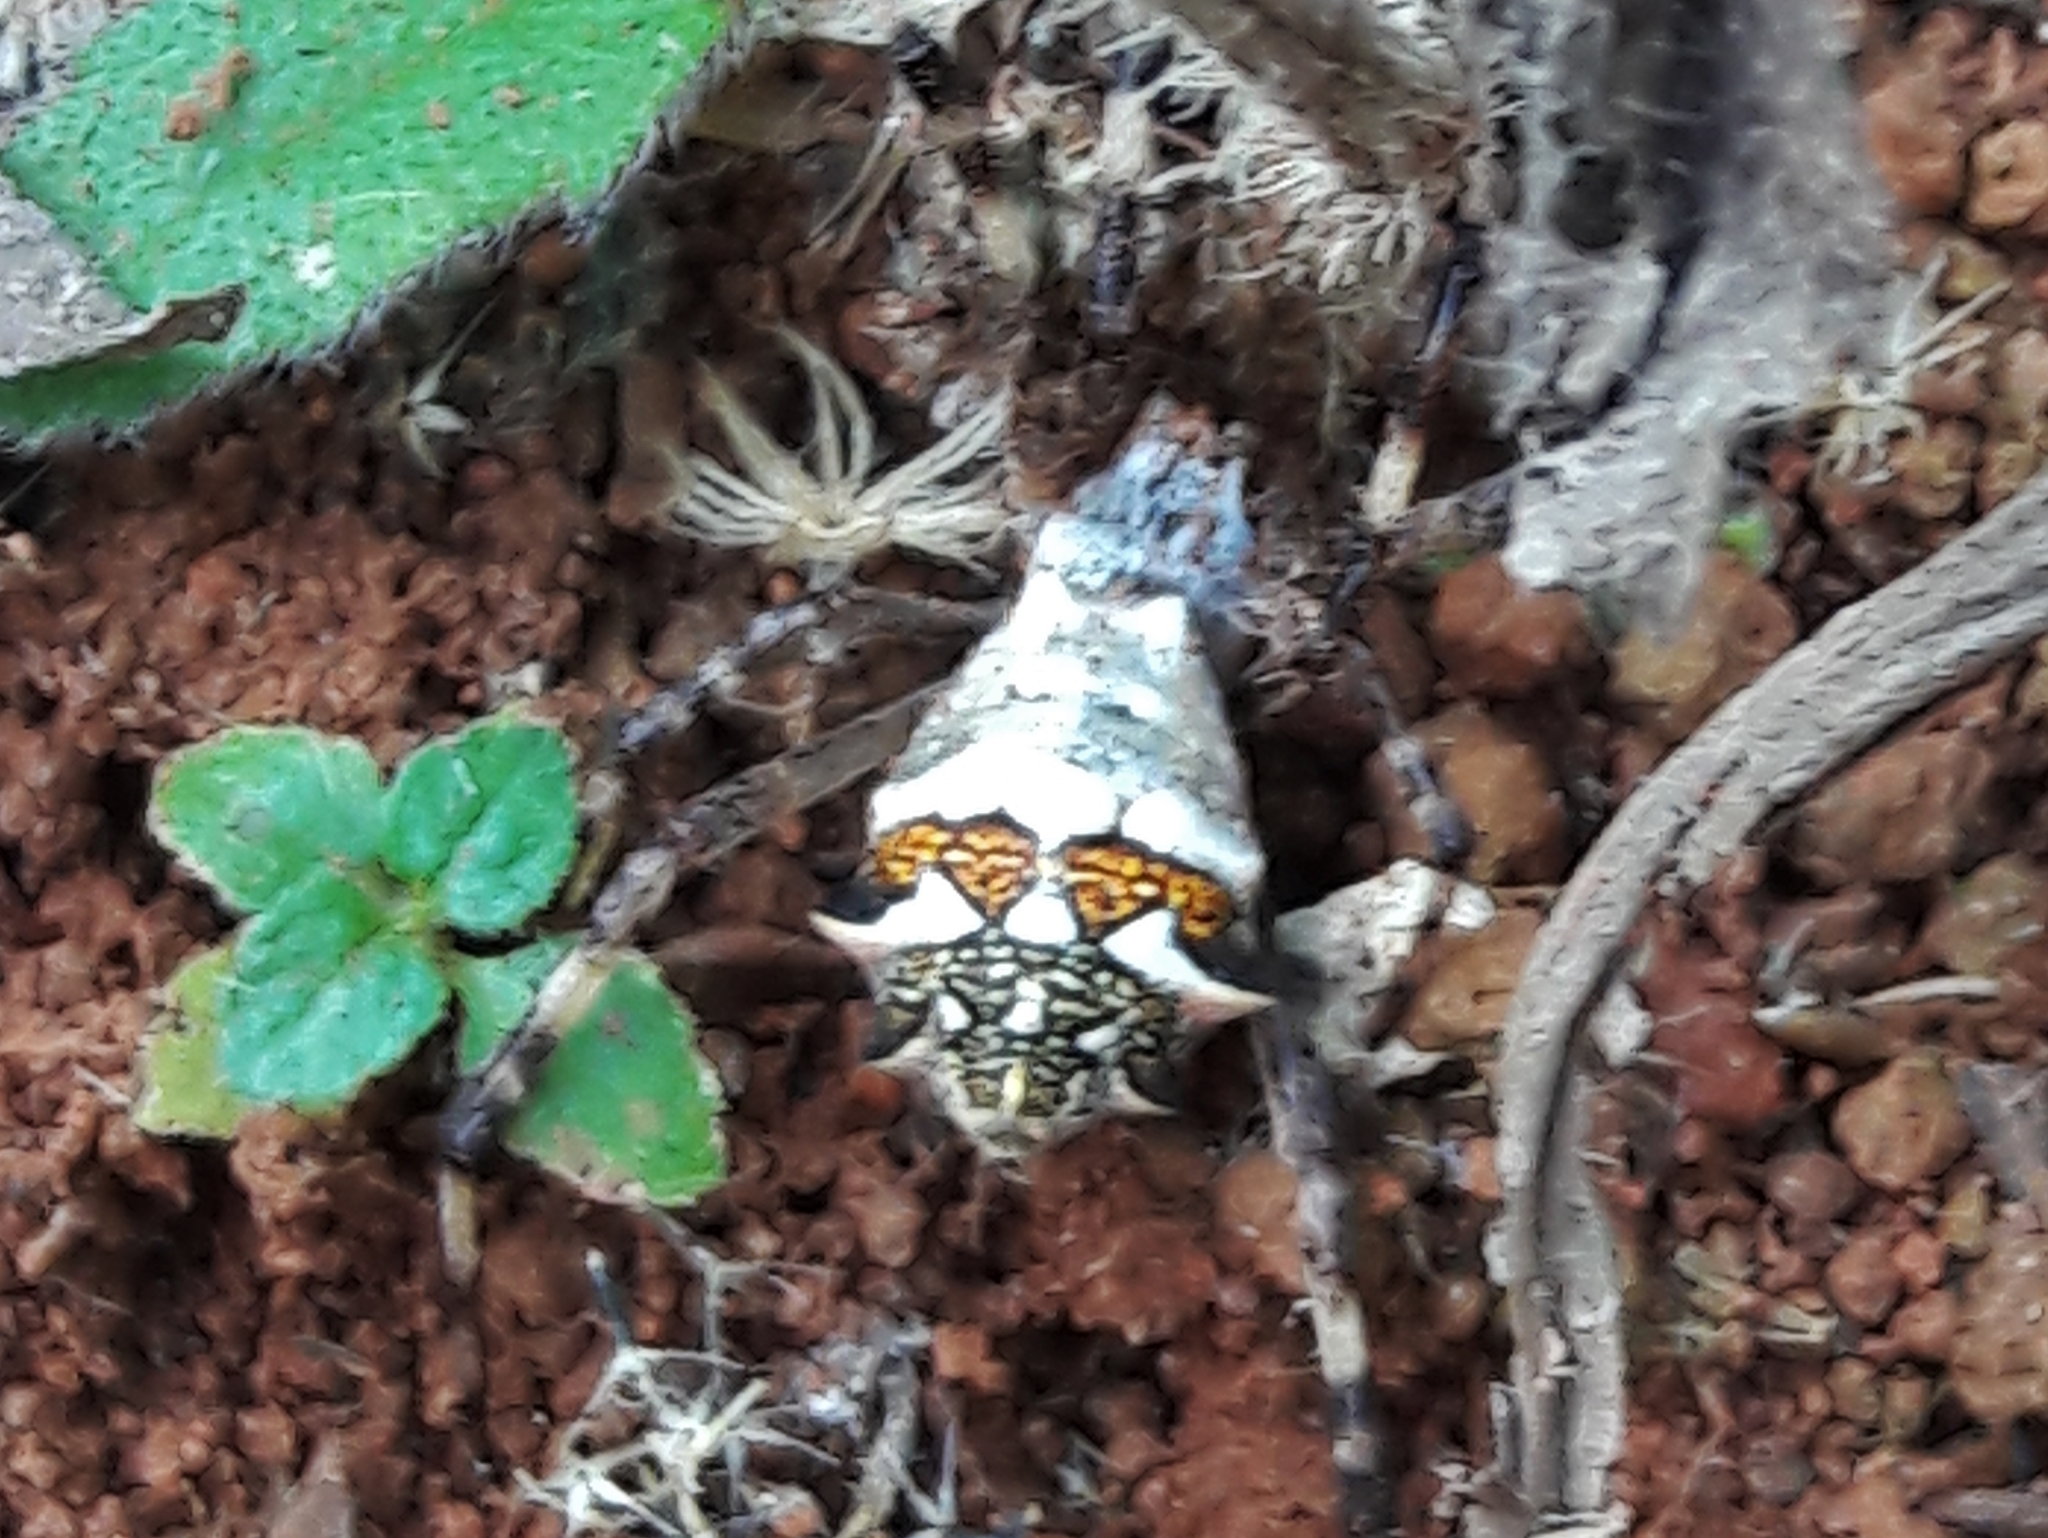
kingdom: Animalia
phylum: Arthropoda
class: Arachnida
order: Araneae
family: Araneidae
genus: Argiope
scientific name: Argiope argentata
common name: Orb weavers
